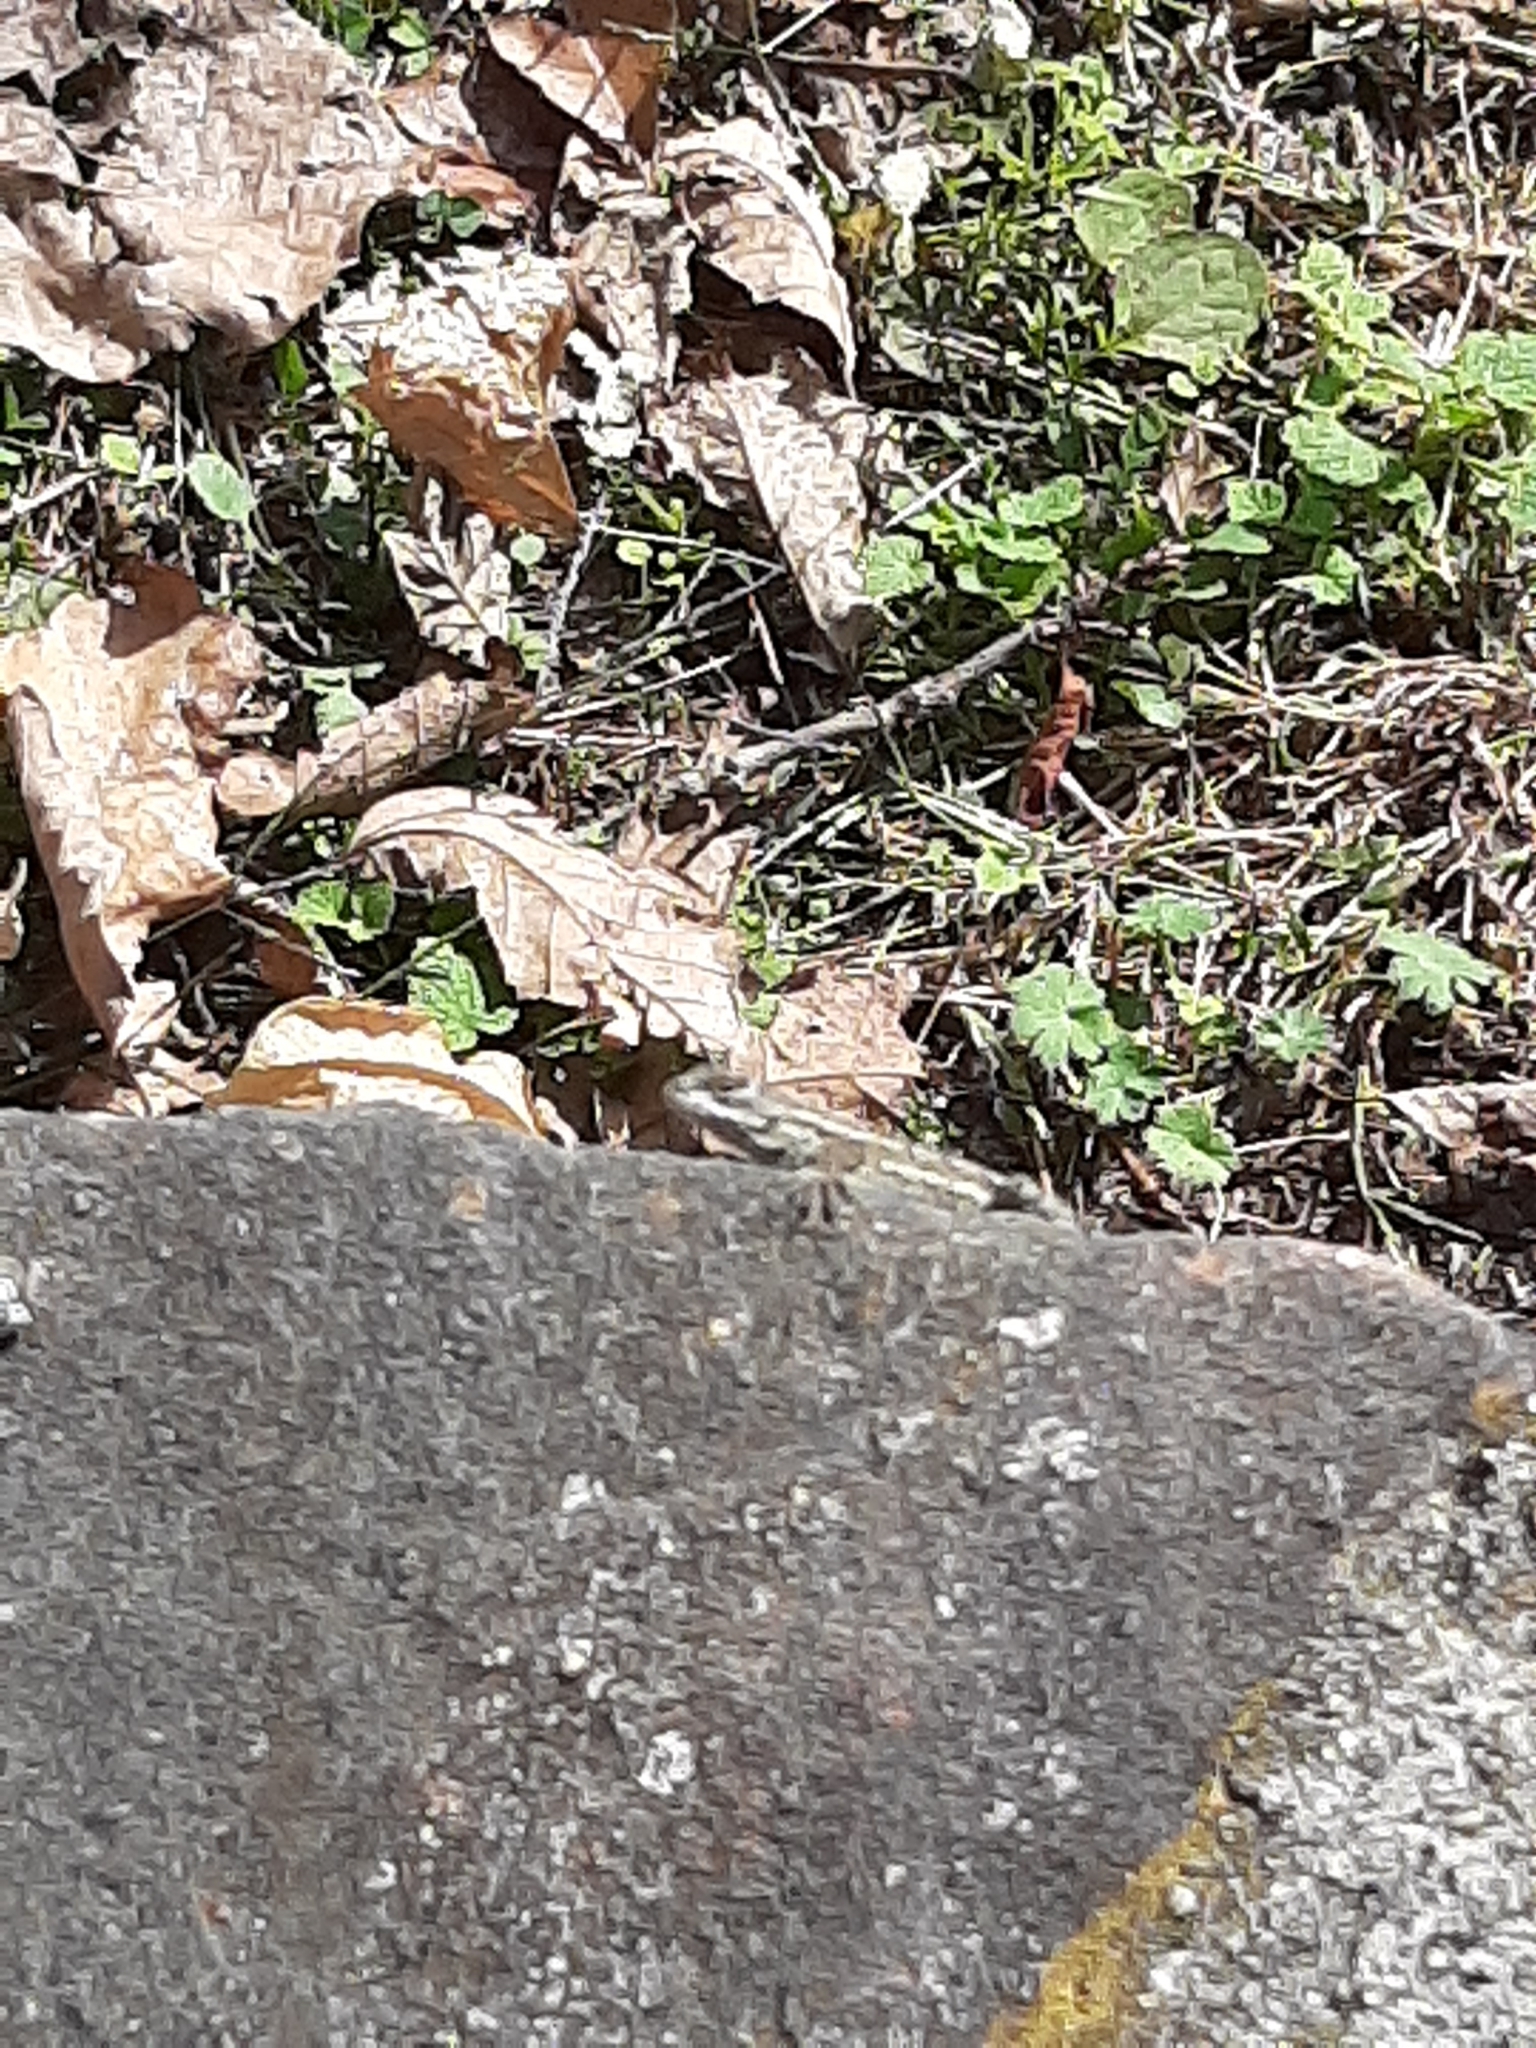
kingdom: Animalia
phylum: Chordata
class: Squamata
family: Phrynosomatidae
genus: Sceloporus
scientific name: Sceloporus undulatus
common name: Eastern fence lizard
